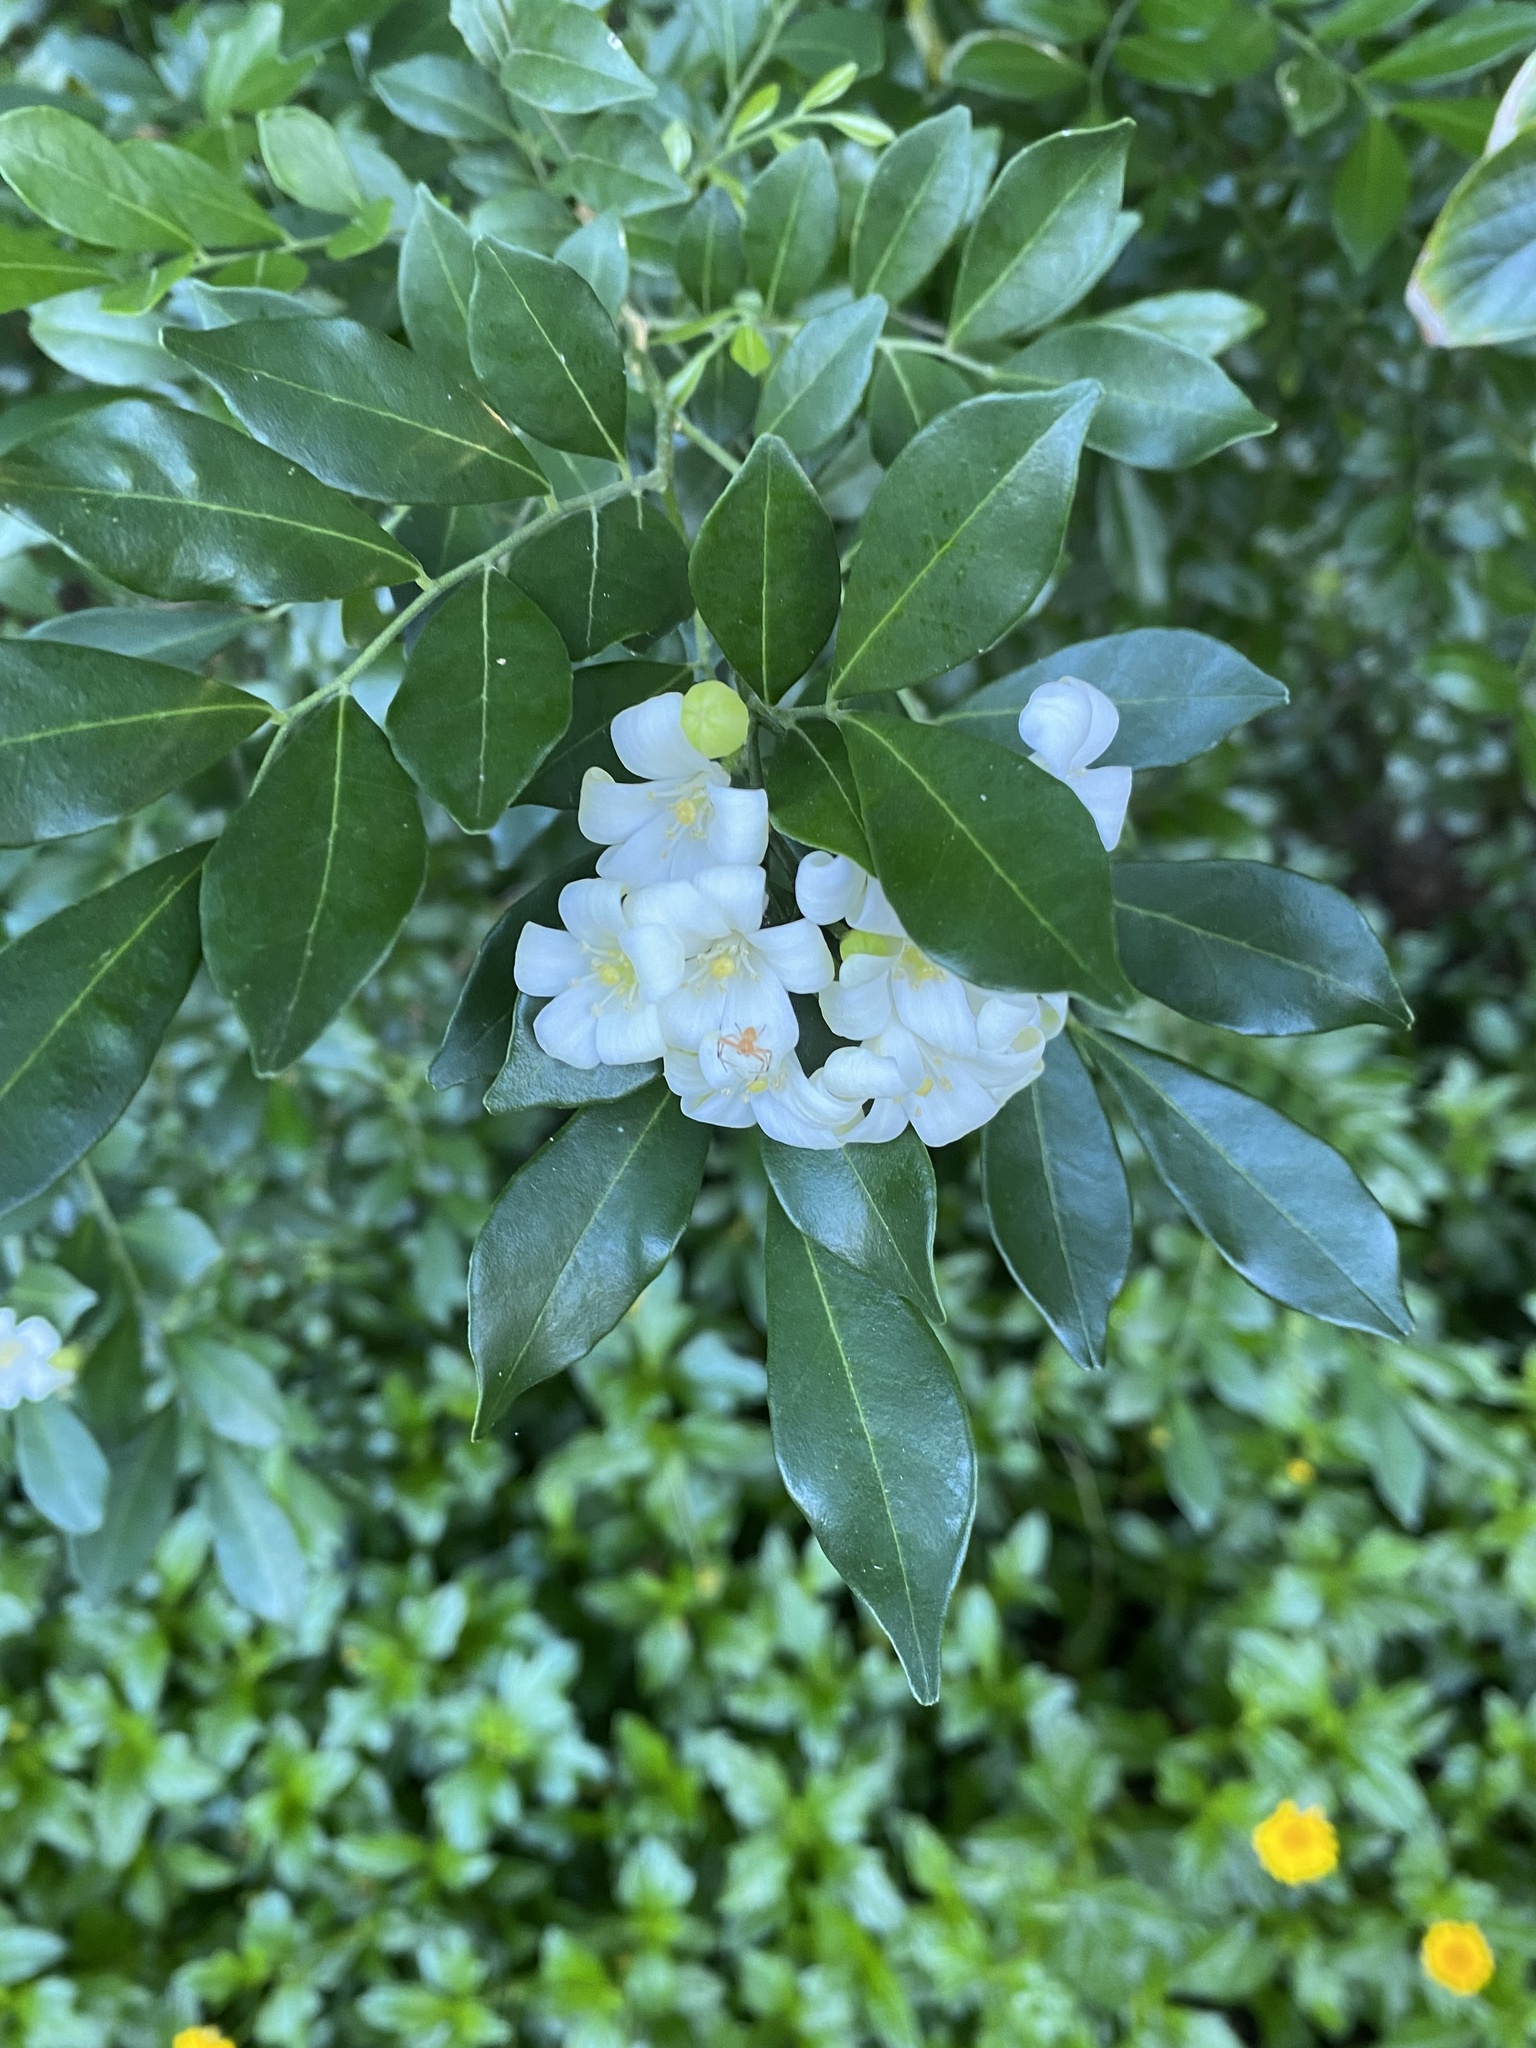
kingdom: Plantae
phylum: Tracheophyta
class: Magnoliopsida
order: Sapindales
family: Rutaceae
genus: Murraya
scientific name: Murraya paniculata
